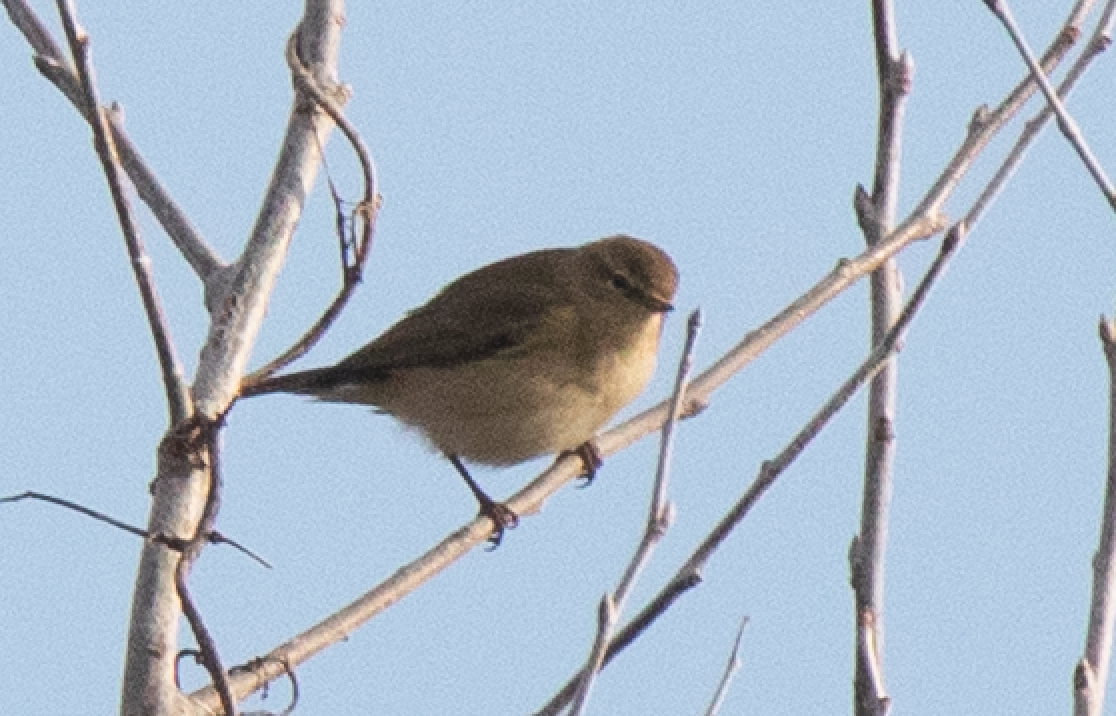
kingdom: Animalia
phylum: Chordata
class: Aves
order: Passeriformes
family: Phylloscopidae
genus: Phylloscopus
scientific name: Phylloscopus collybita
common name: Common chiffchaff
